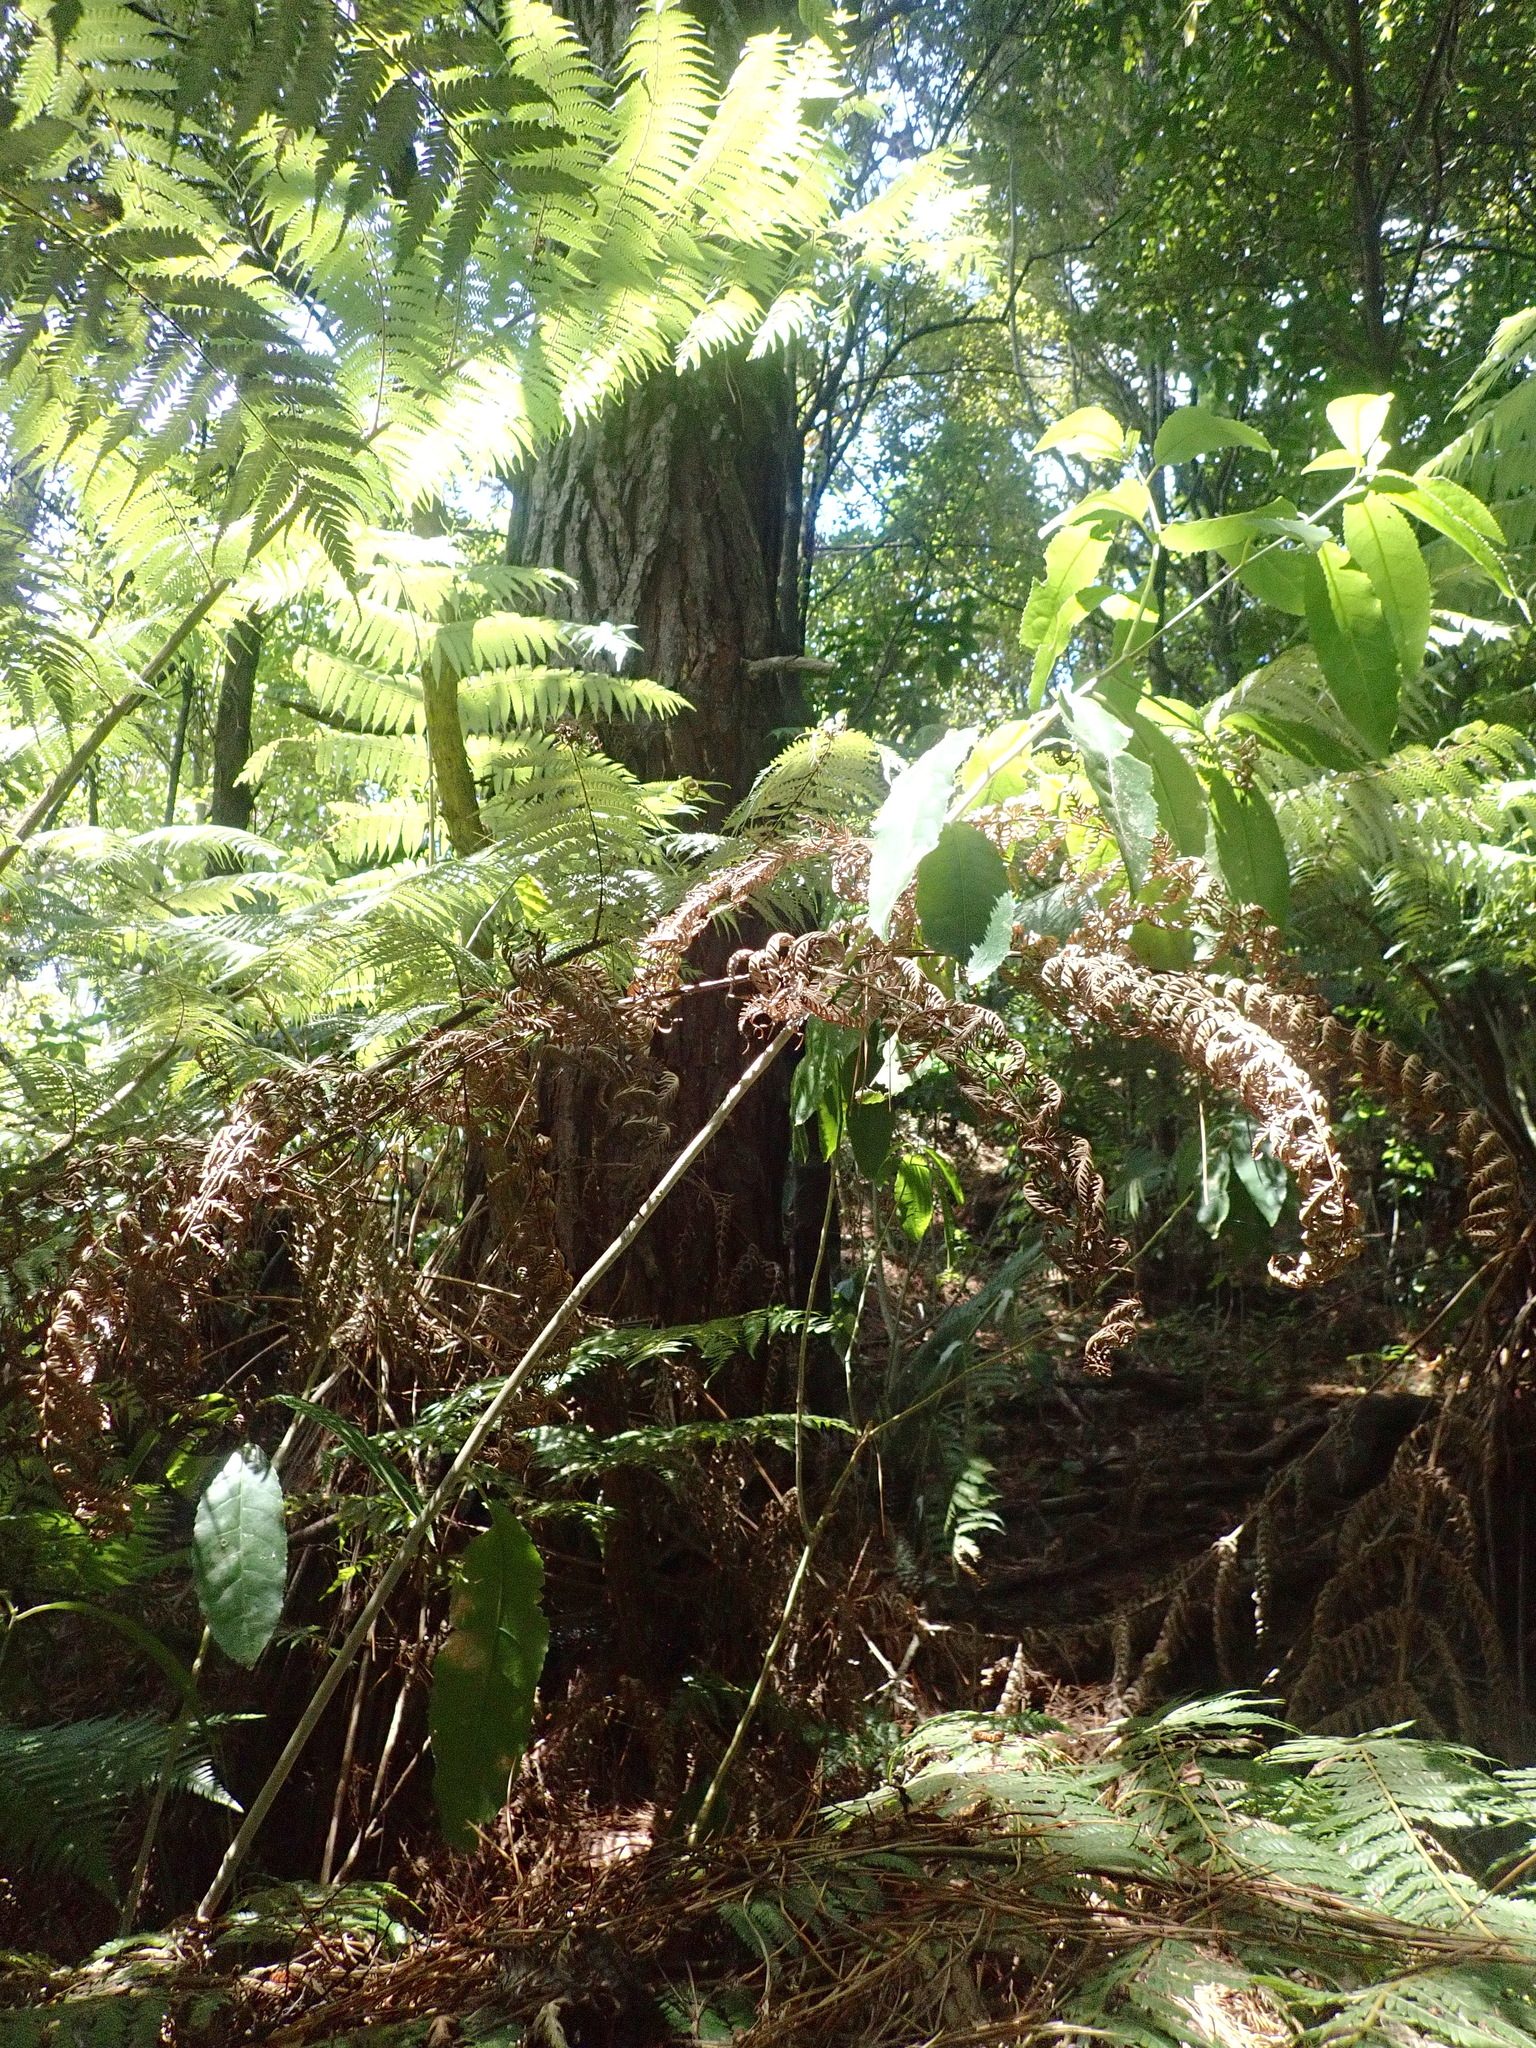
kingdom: Plantae
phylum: Tracheophyta
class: Pinopsida
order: Pinales
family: Pinaceae
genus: Pinus
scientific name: Pinus radiata
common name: Monterey pine
